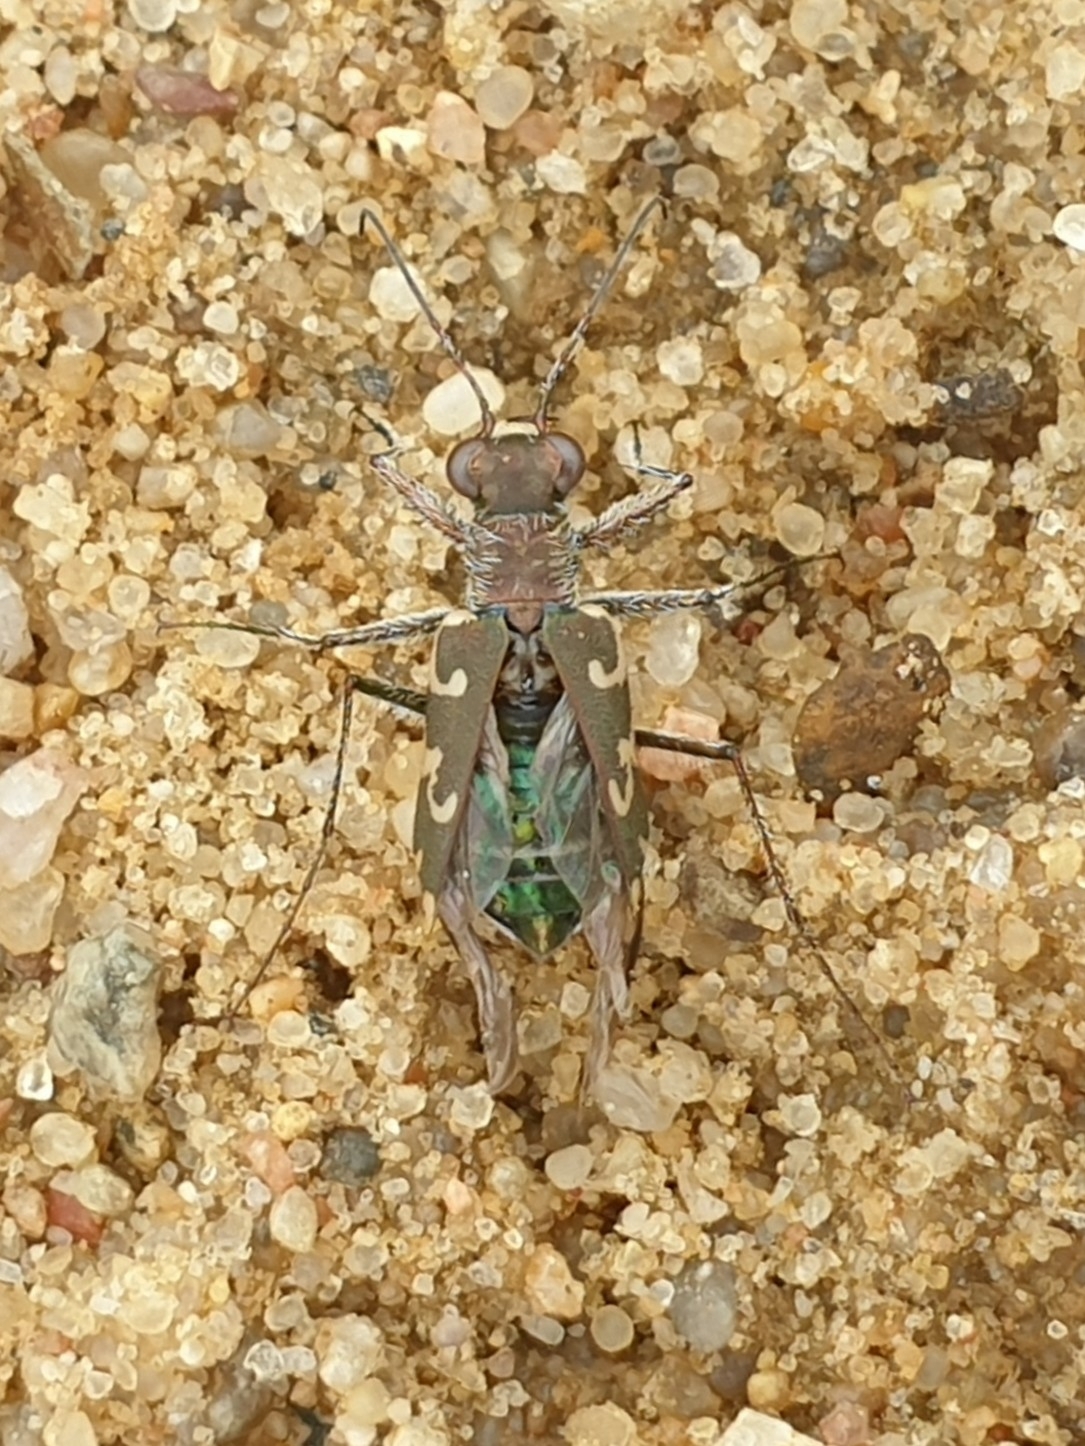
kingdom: Animalia
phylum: Arthropoda
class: Insecta
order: Coleoptera
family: Carabidae
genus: Cylindera
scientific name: Cylindera arenaria
